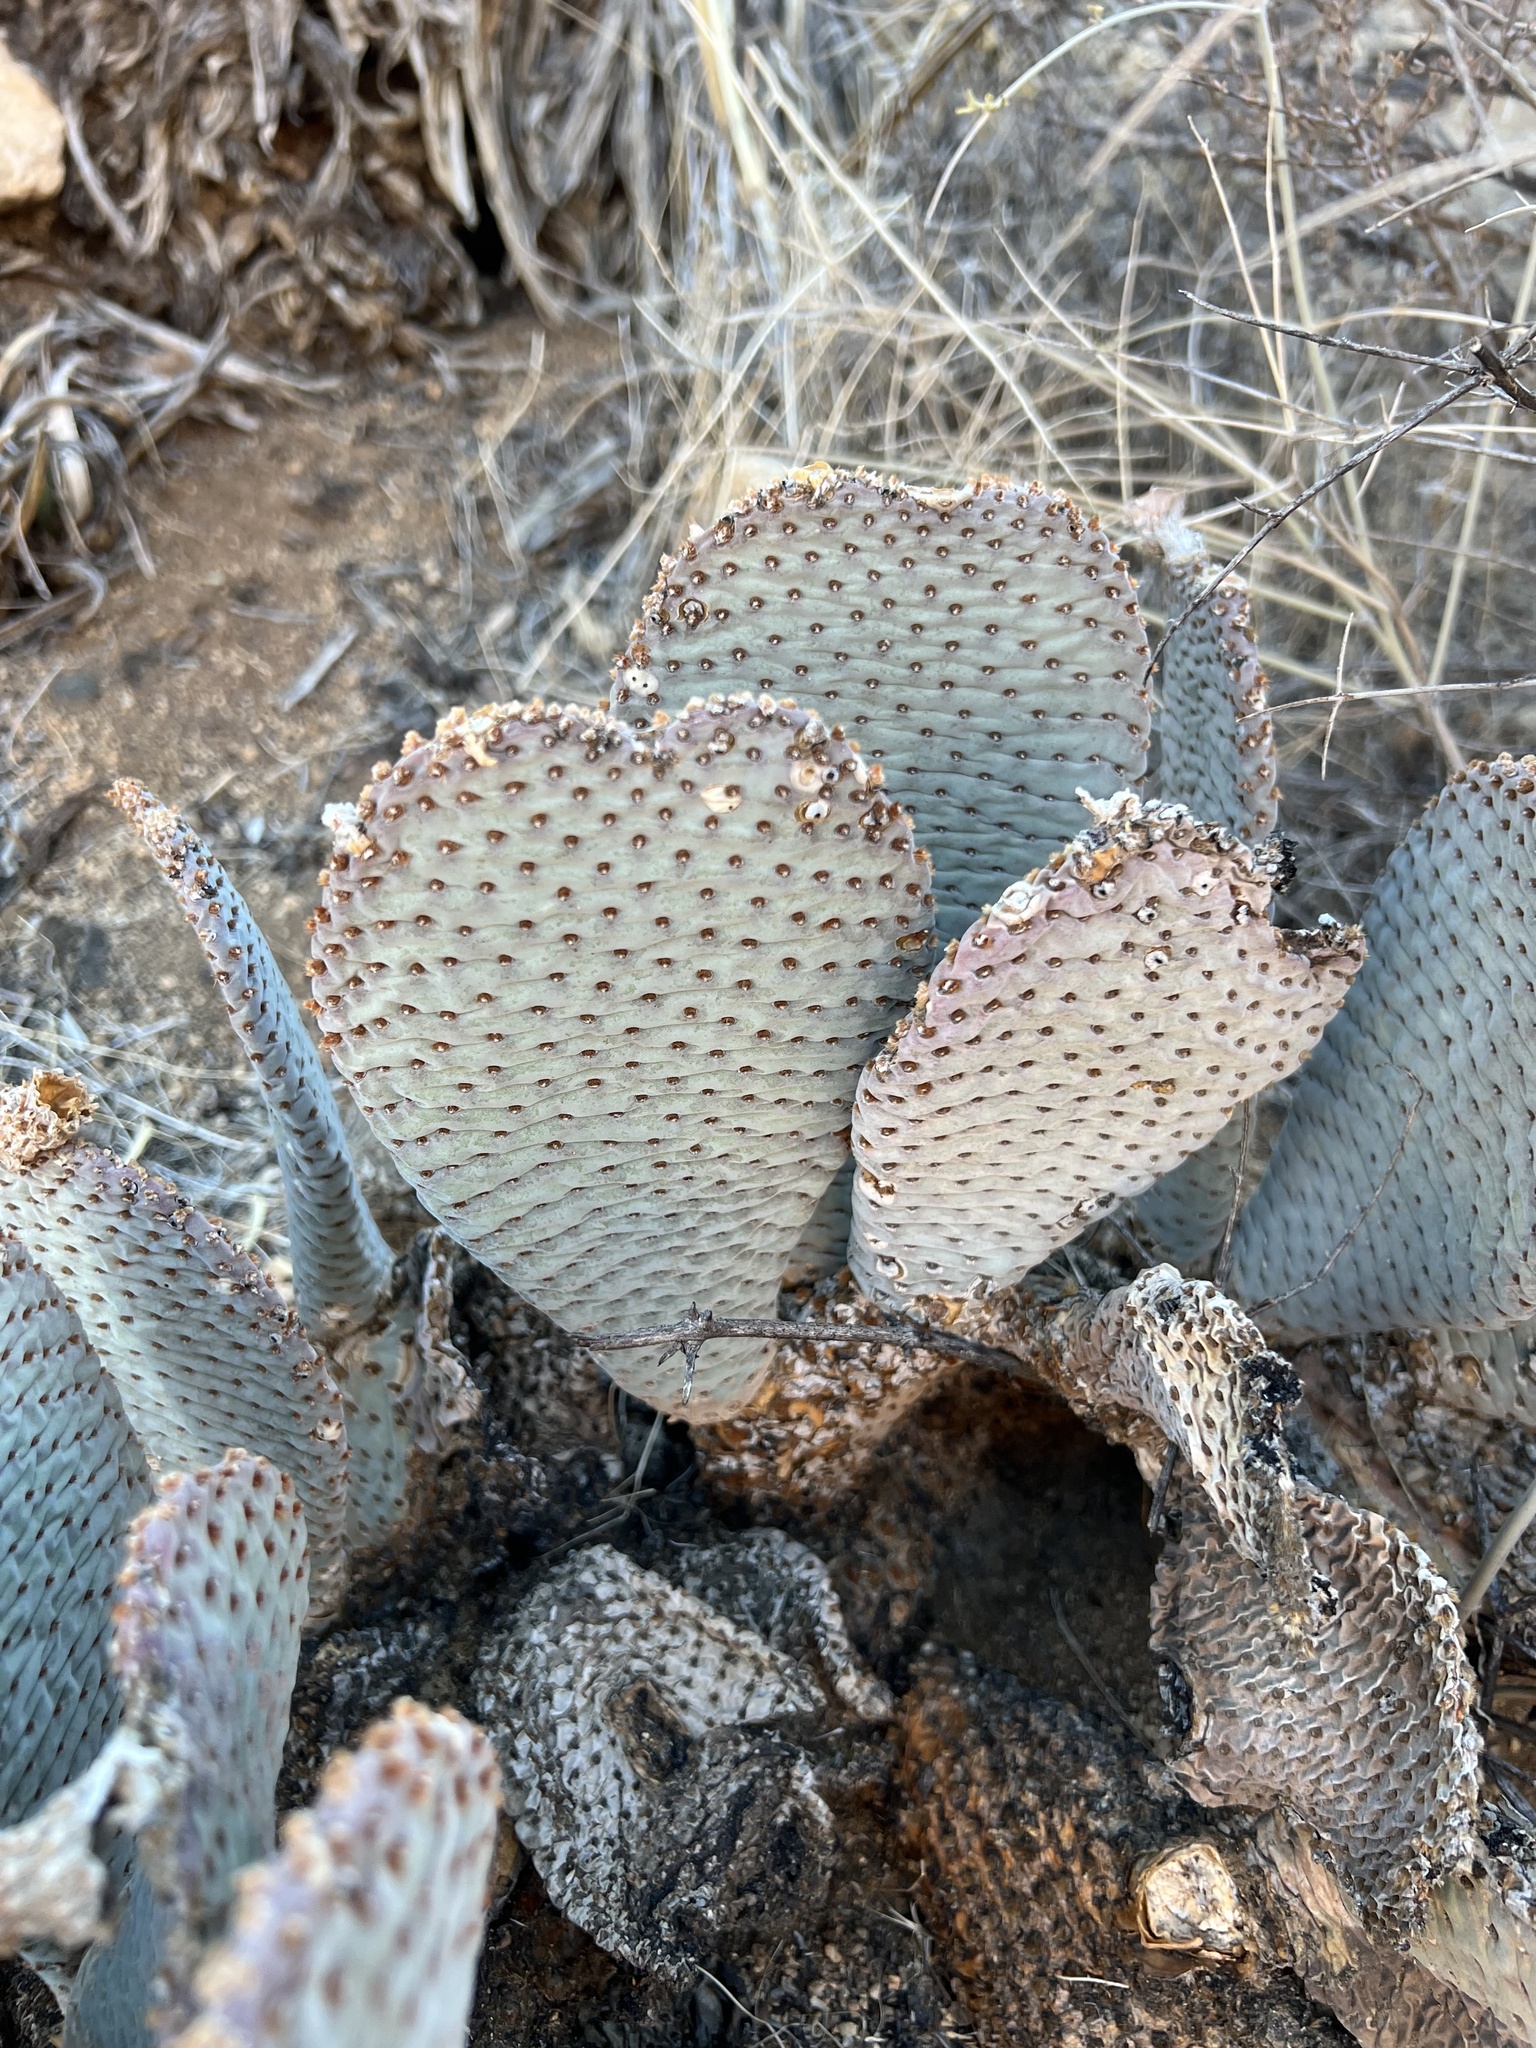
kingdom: Plantae
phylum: Tracheophyta
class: Magnoliopsida
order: Caryophyllales
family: Cactaceae
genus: Opuntia
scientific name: Opuntia basilaris
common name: Beavertail prickly-pear
